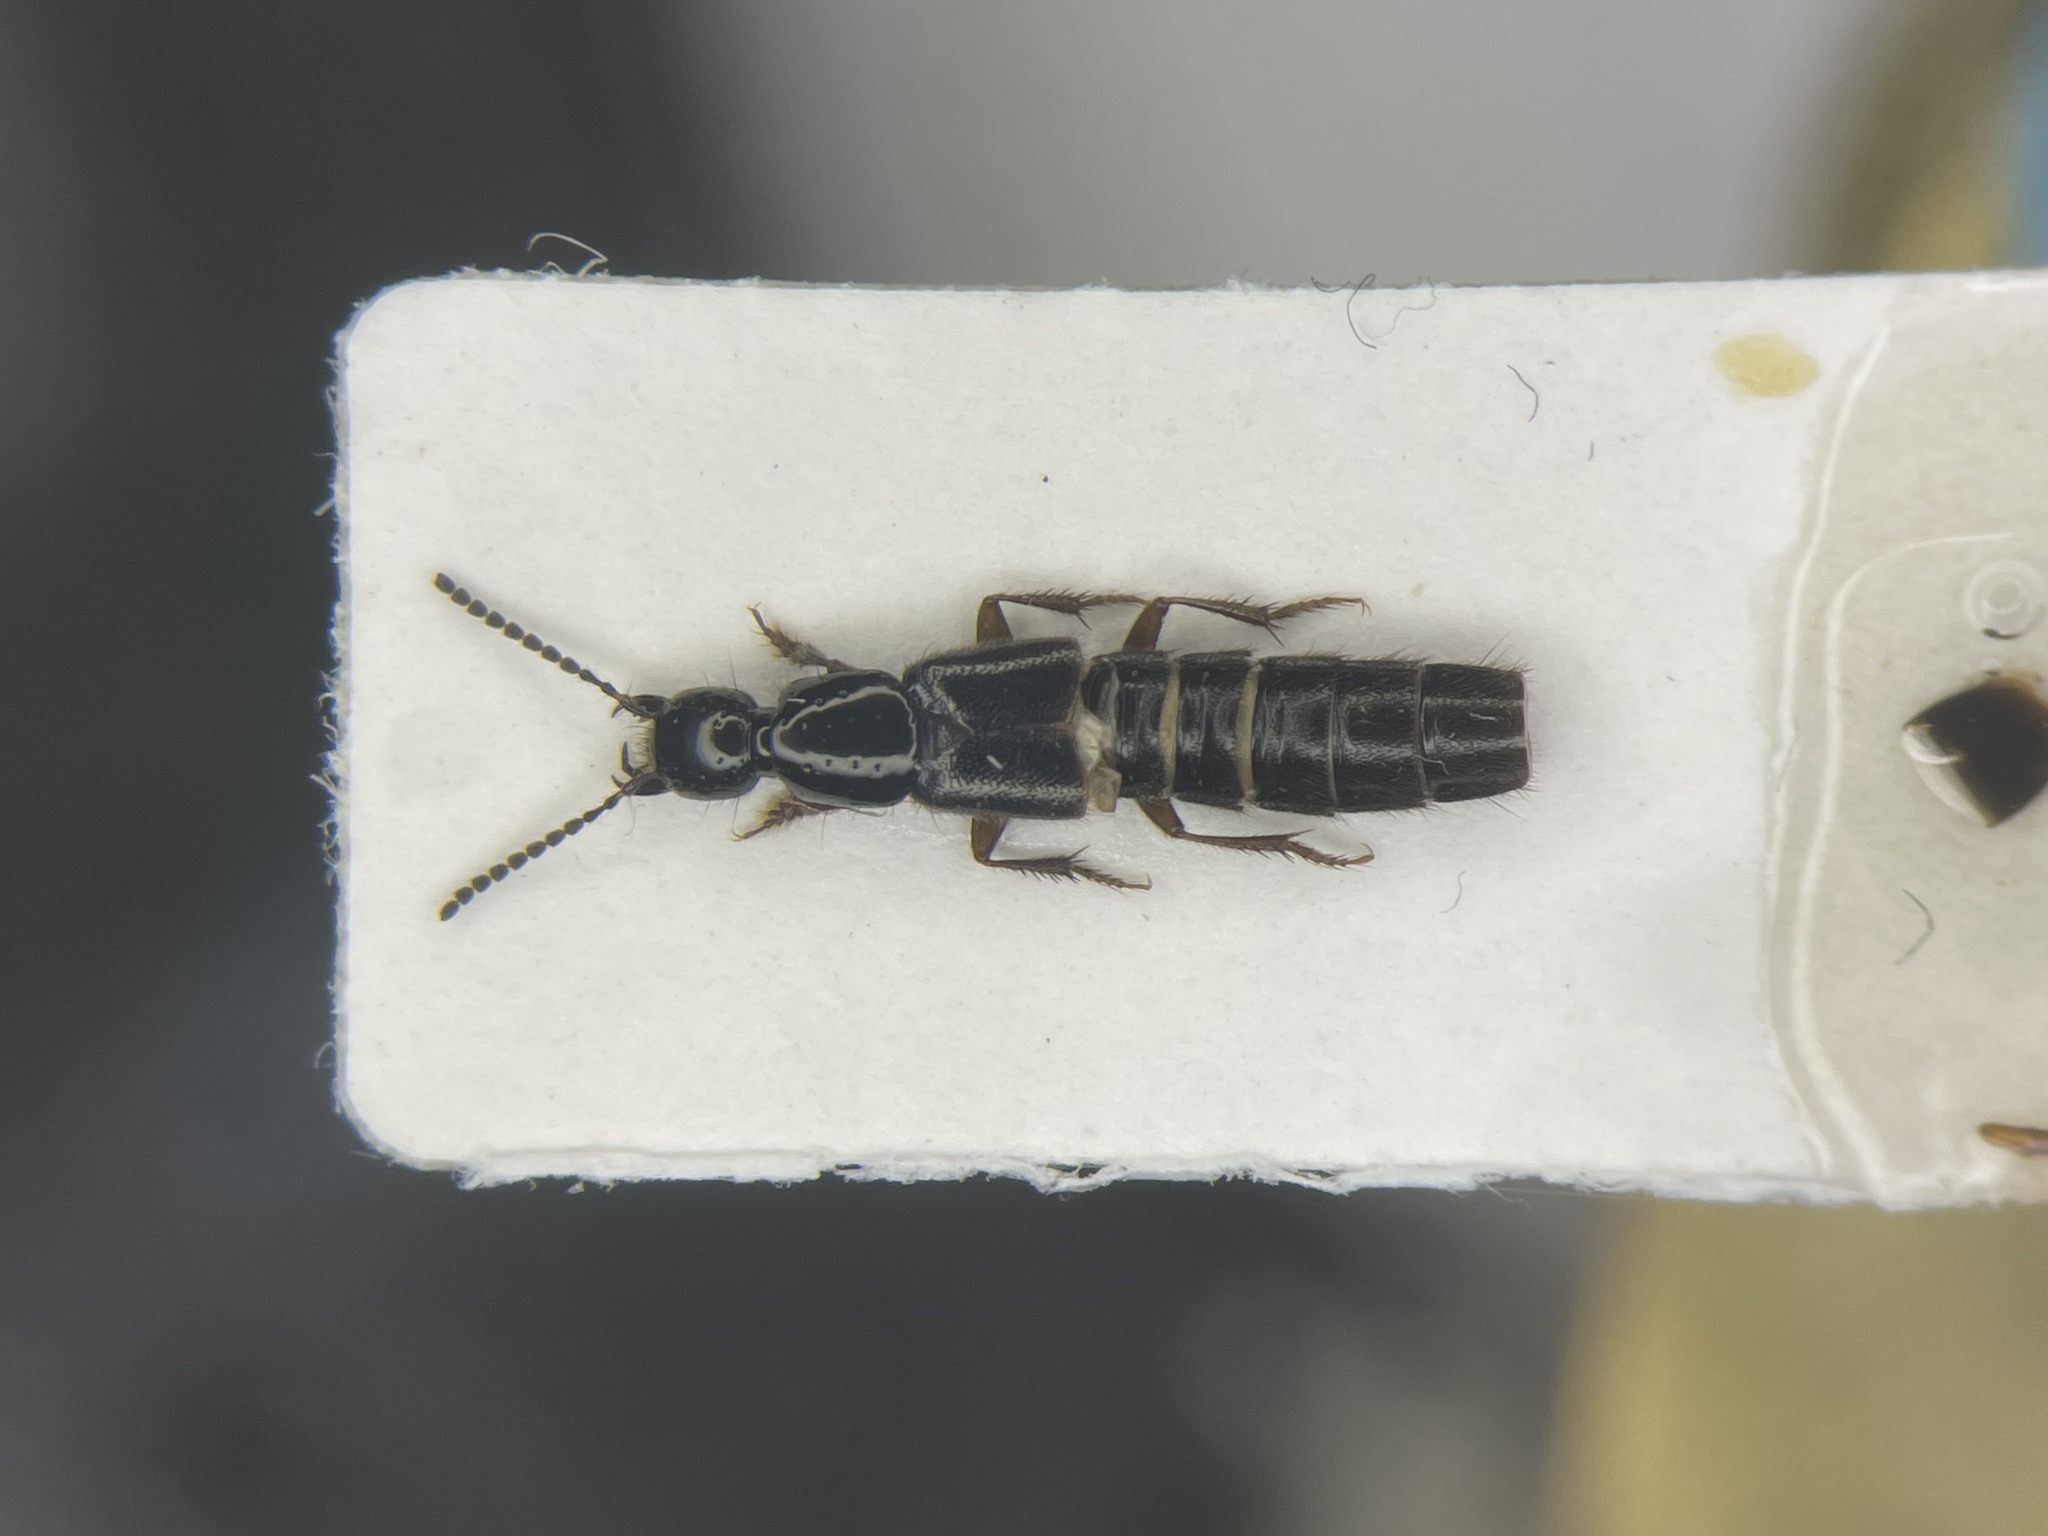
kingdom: Animalia
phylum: Arthropoda
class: Insecta
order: Coleoptera
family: Staphylinidae
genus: Philonthus
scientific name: Philonthus lindrothi
